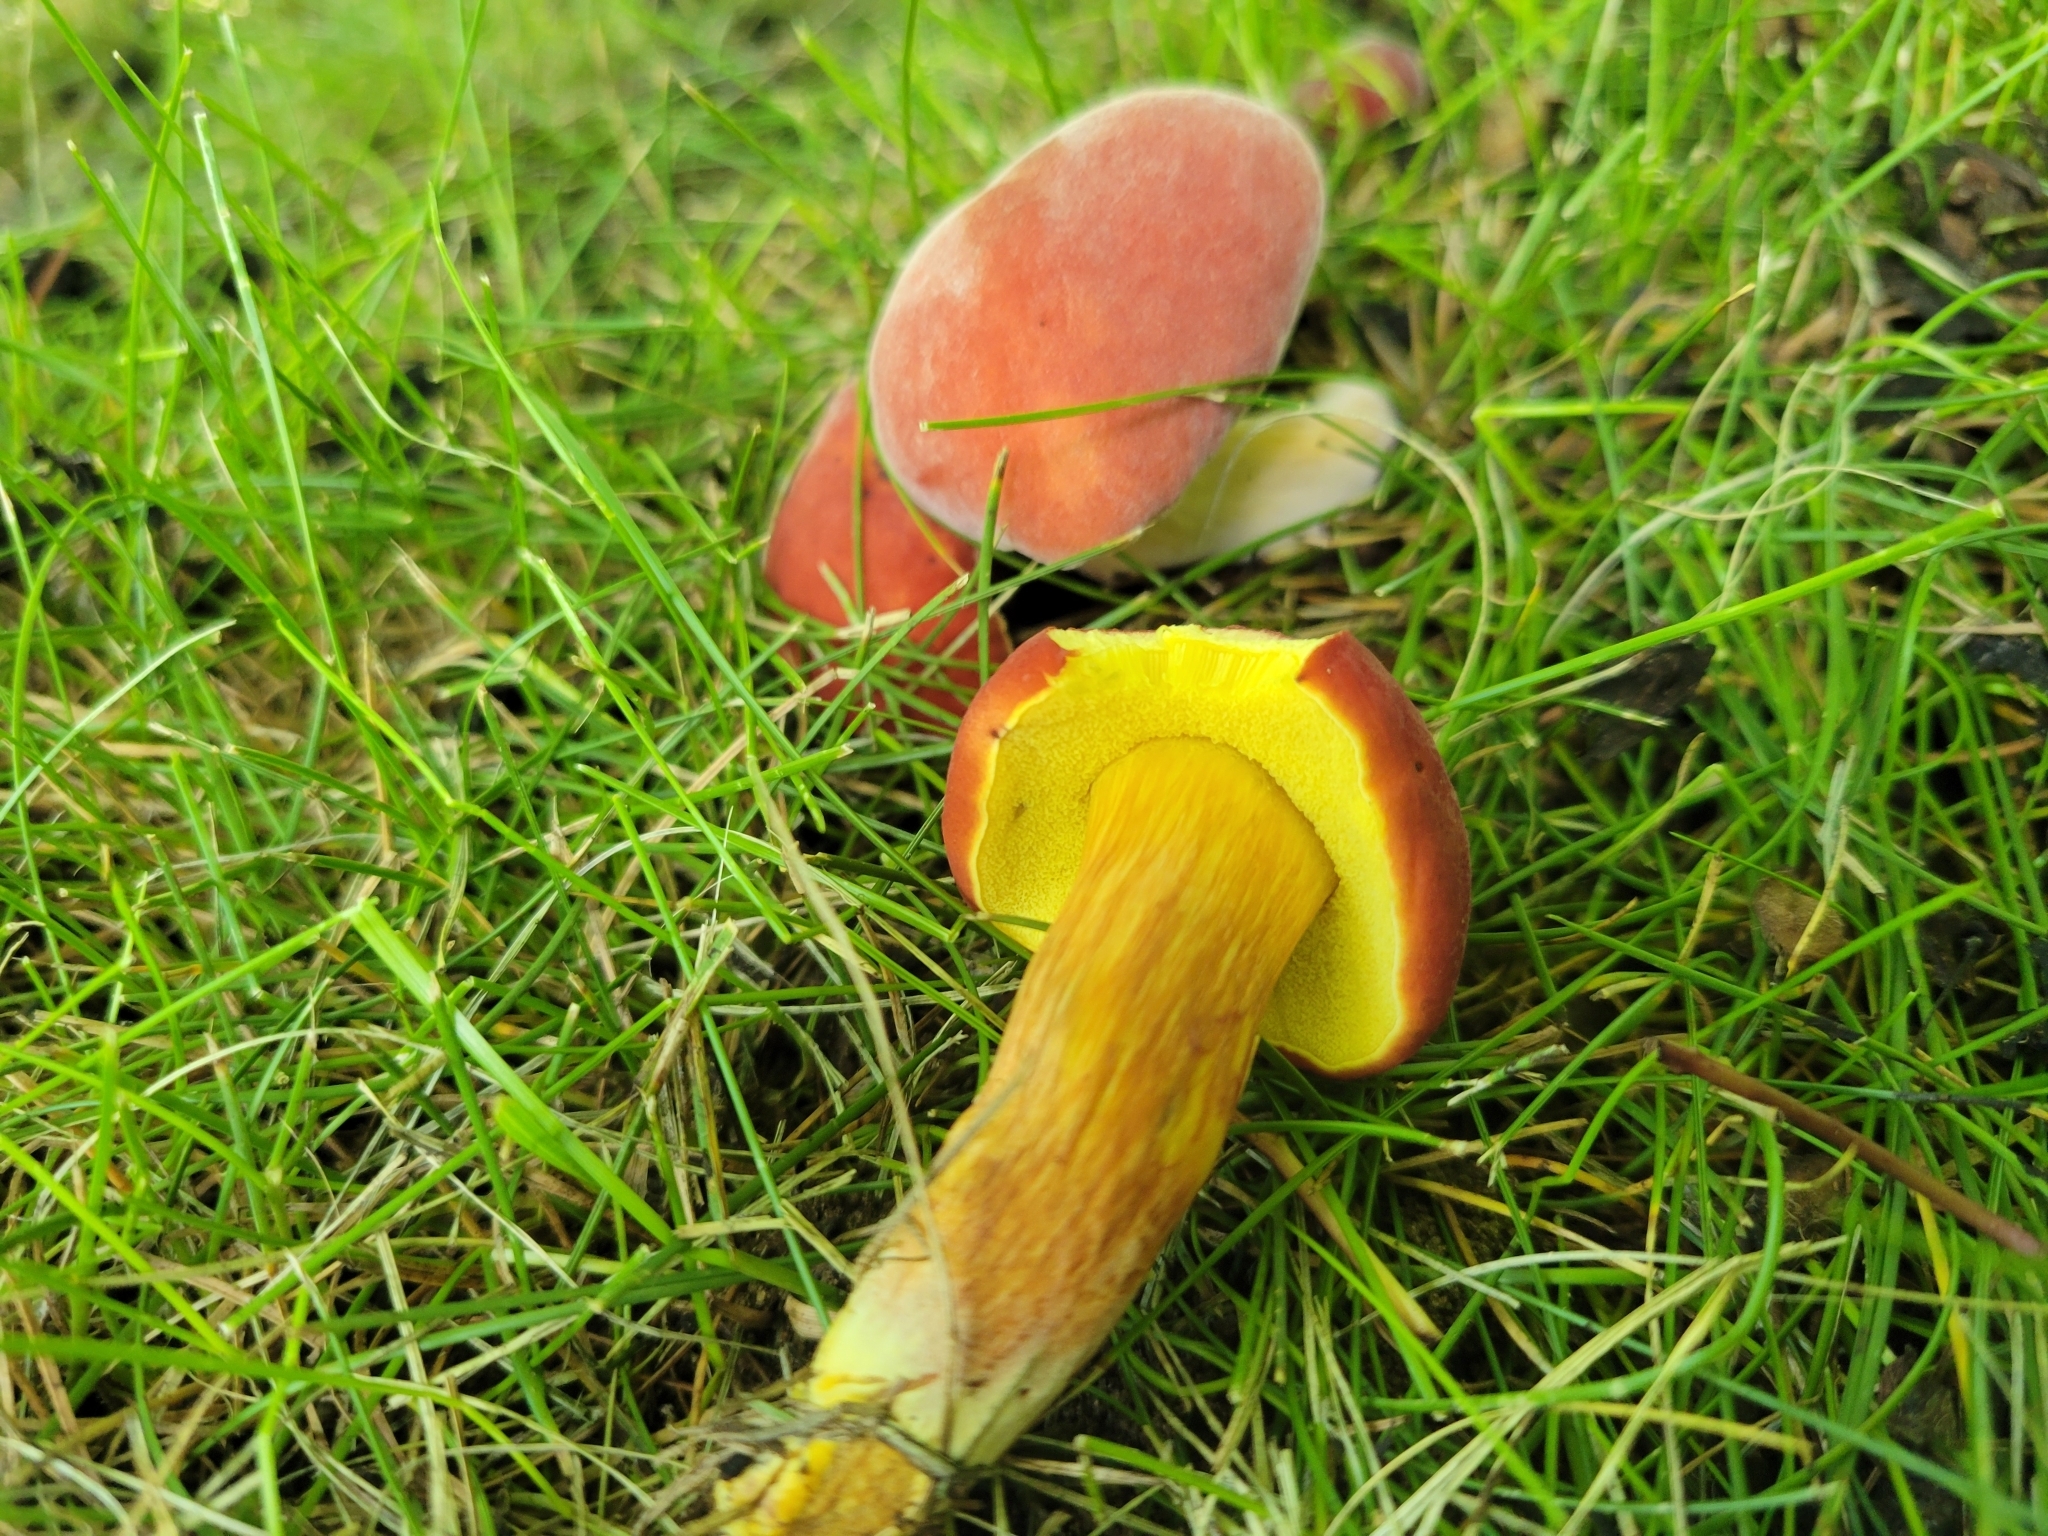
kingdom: Fungi
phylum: Basidiomycota
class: Agaricomycetes
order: Boletales
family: Boletaceae
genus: Hortiboletus
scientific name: Hortiboletus rubellus
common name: Ruby bolete
